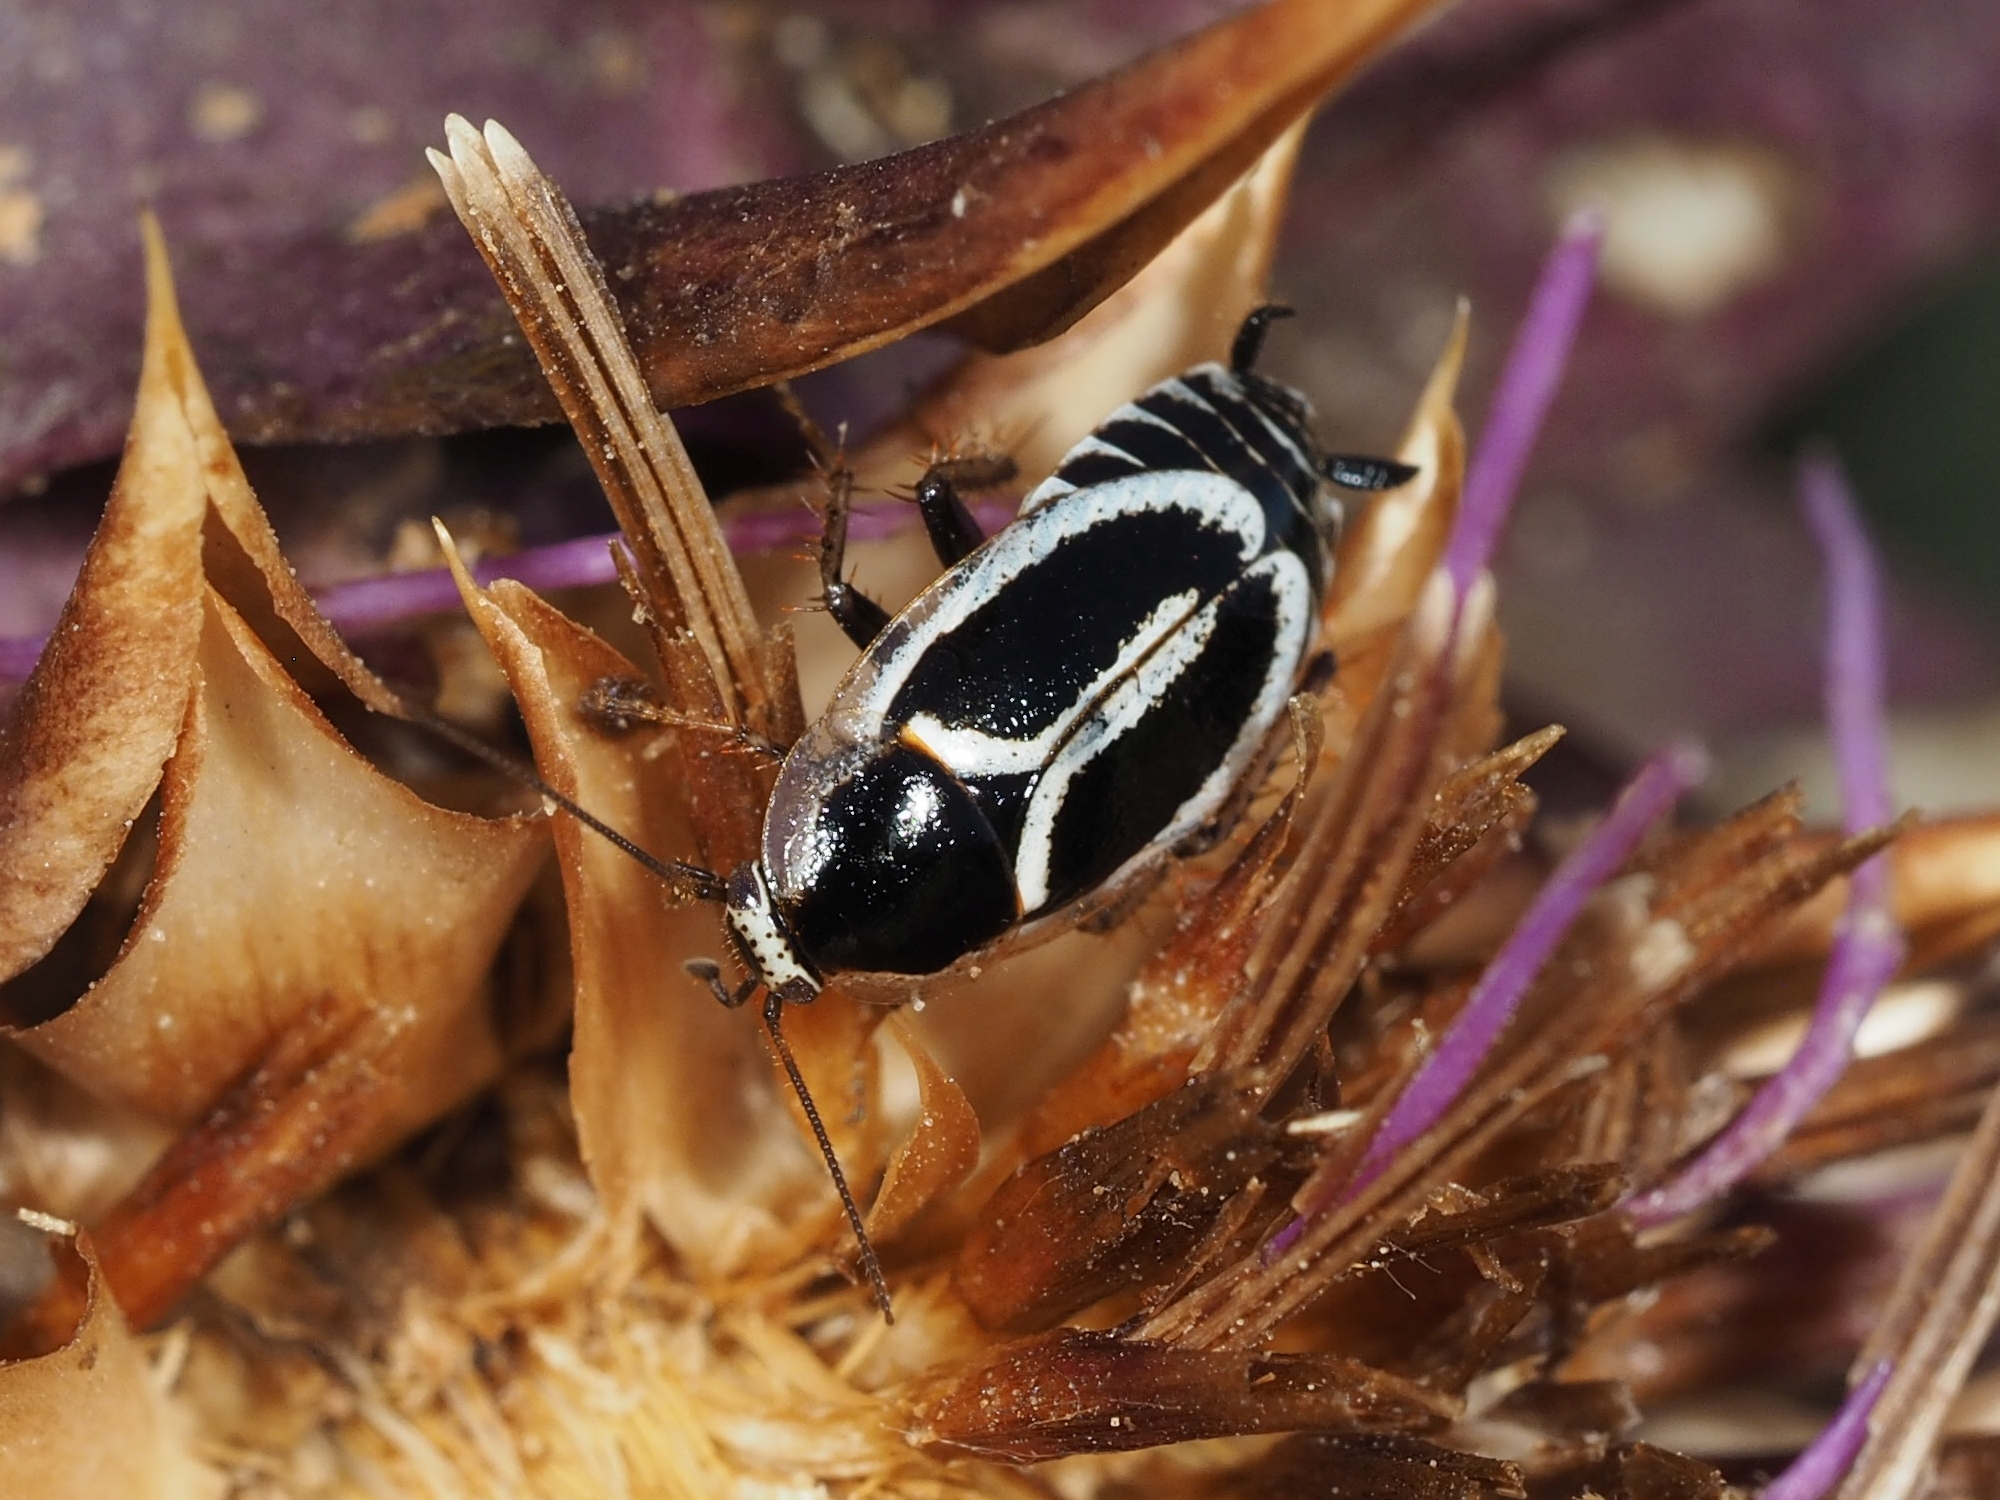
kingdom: Animalia
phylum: Arthropoda
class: Insecta
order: Blattodea
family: Ectobiidae
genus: Phyllodromica
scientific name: Phyllodromica marginata
